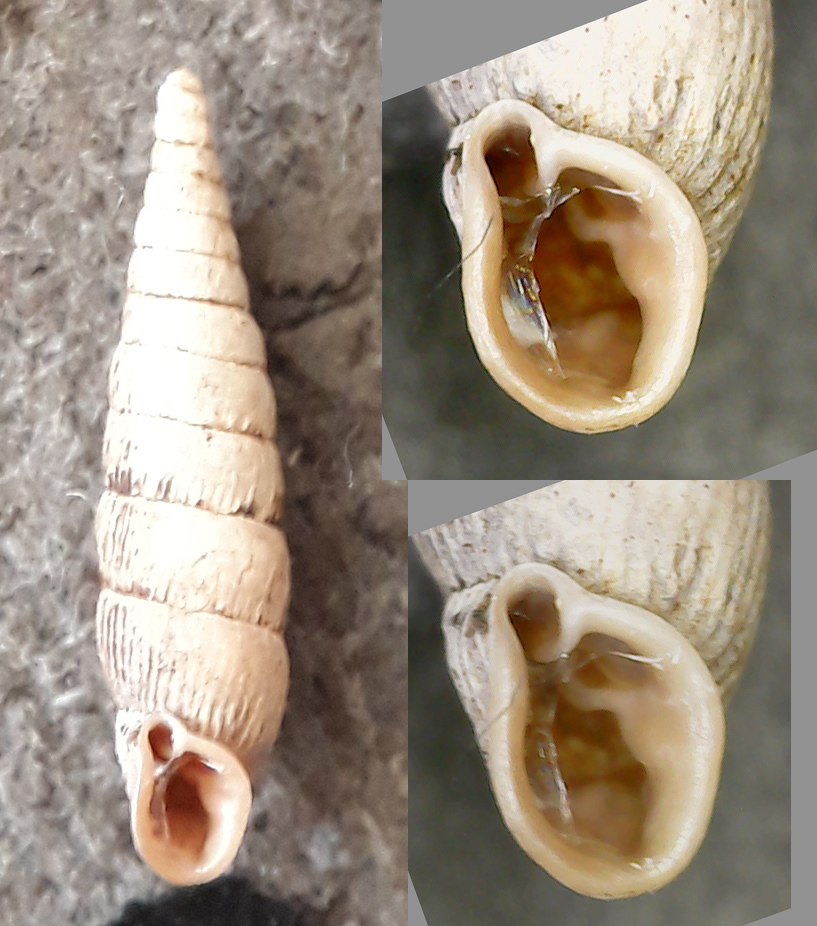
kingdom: Animalia
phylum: Mollusca
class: Gastropoda
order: Stylommatophora
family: Clausiliidae
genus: Clausilia
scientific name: Clausilia pumila
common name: Clublike door snail
